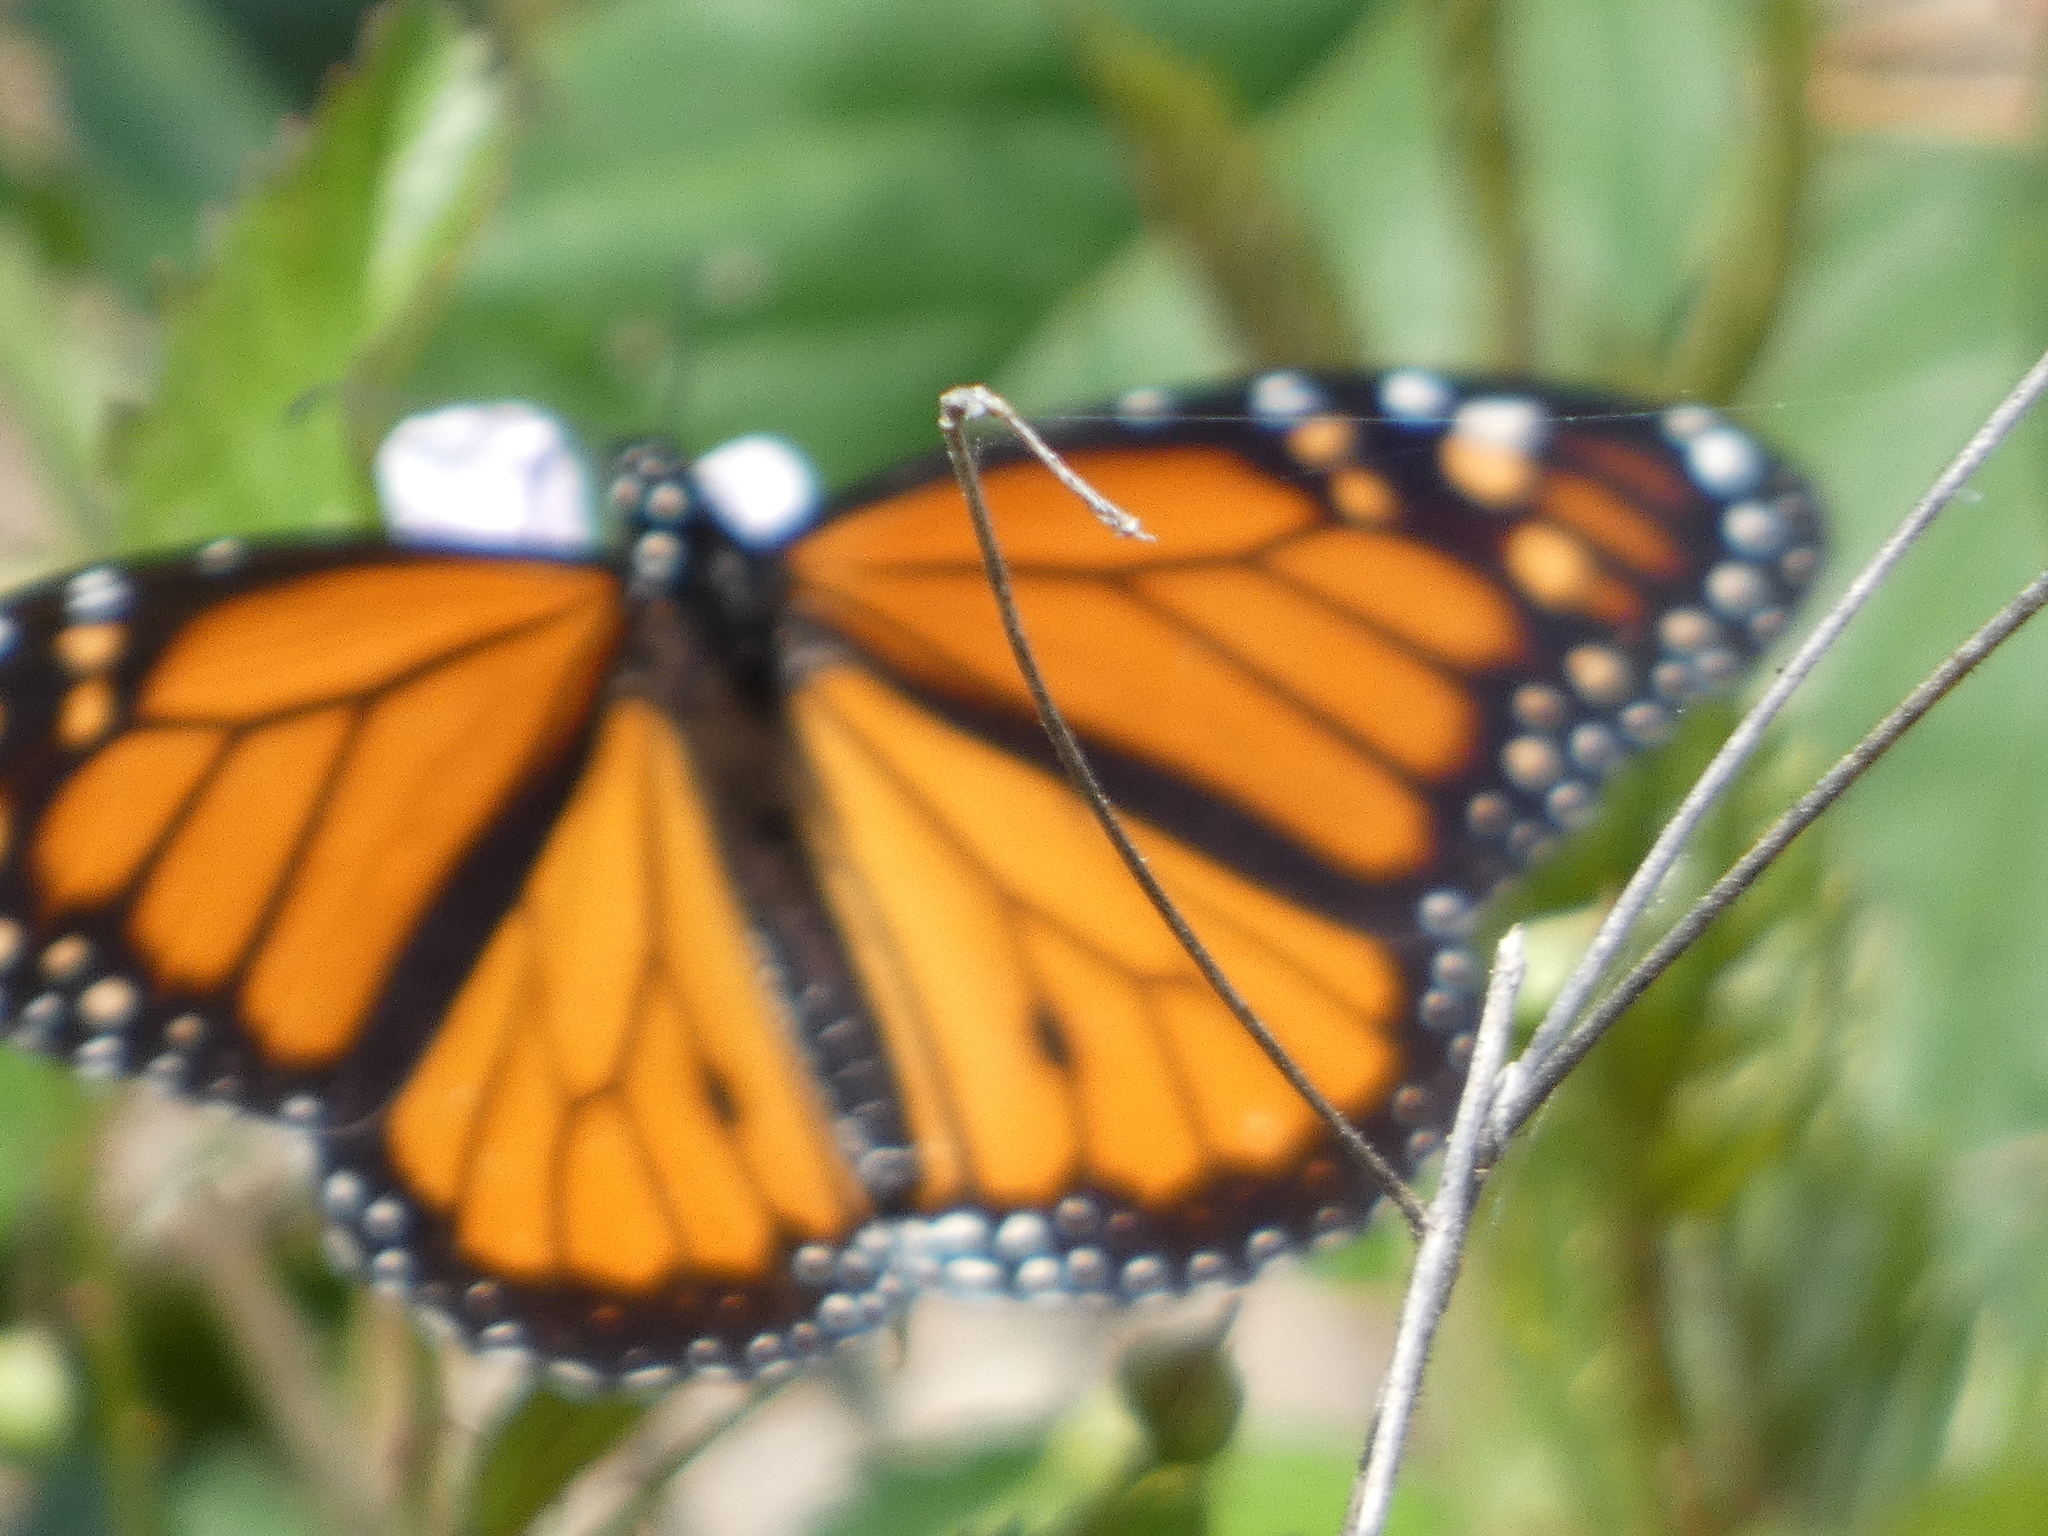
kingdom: Animalia
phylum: Arthropoda
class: Insecta
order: Lepidoptera
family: Nymphalidae
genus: Danaus
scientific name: Danaus plexippus
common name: Monarch
